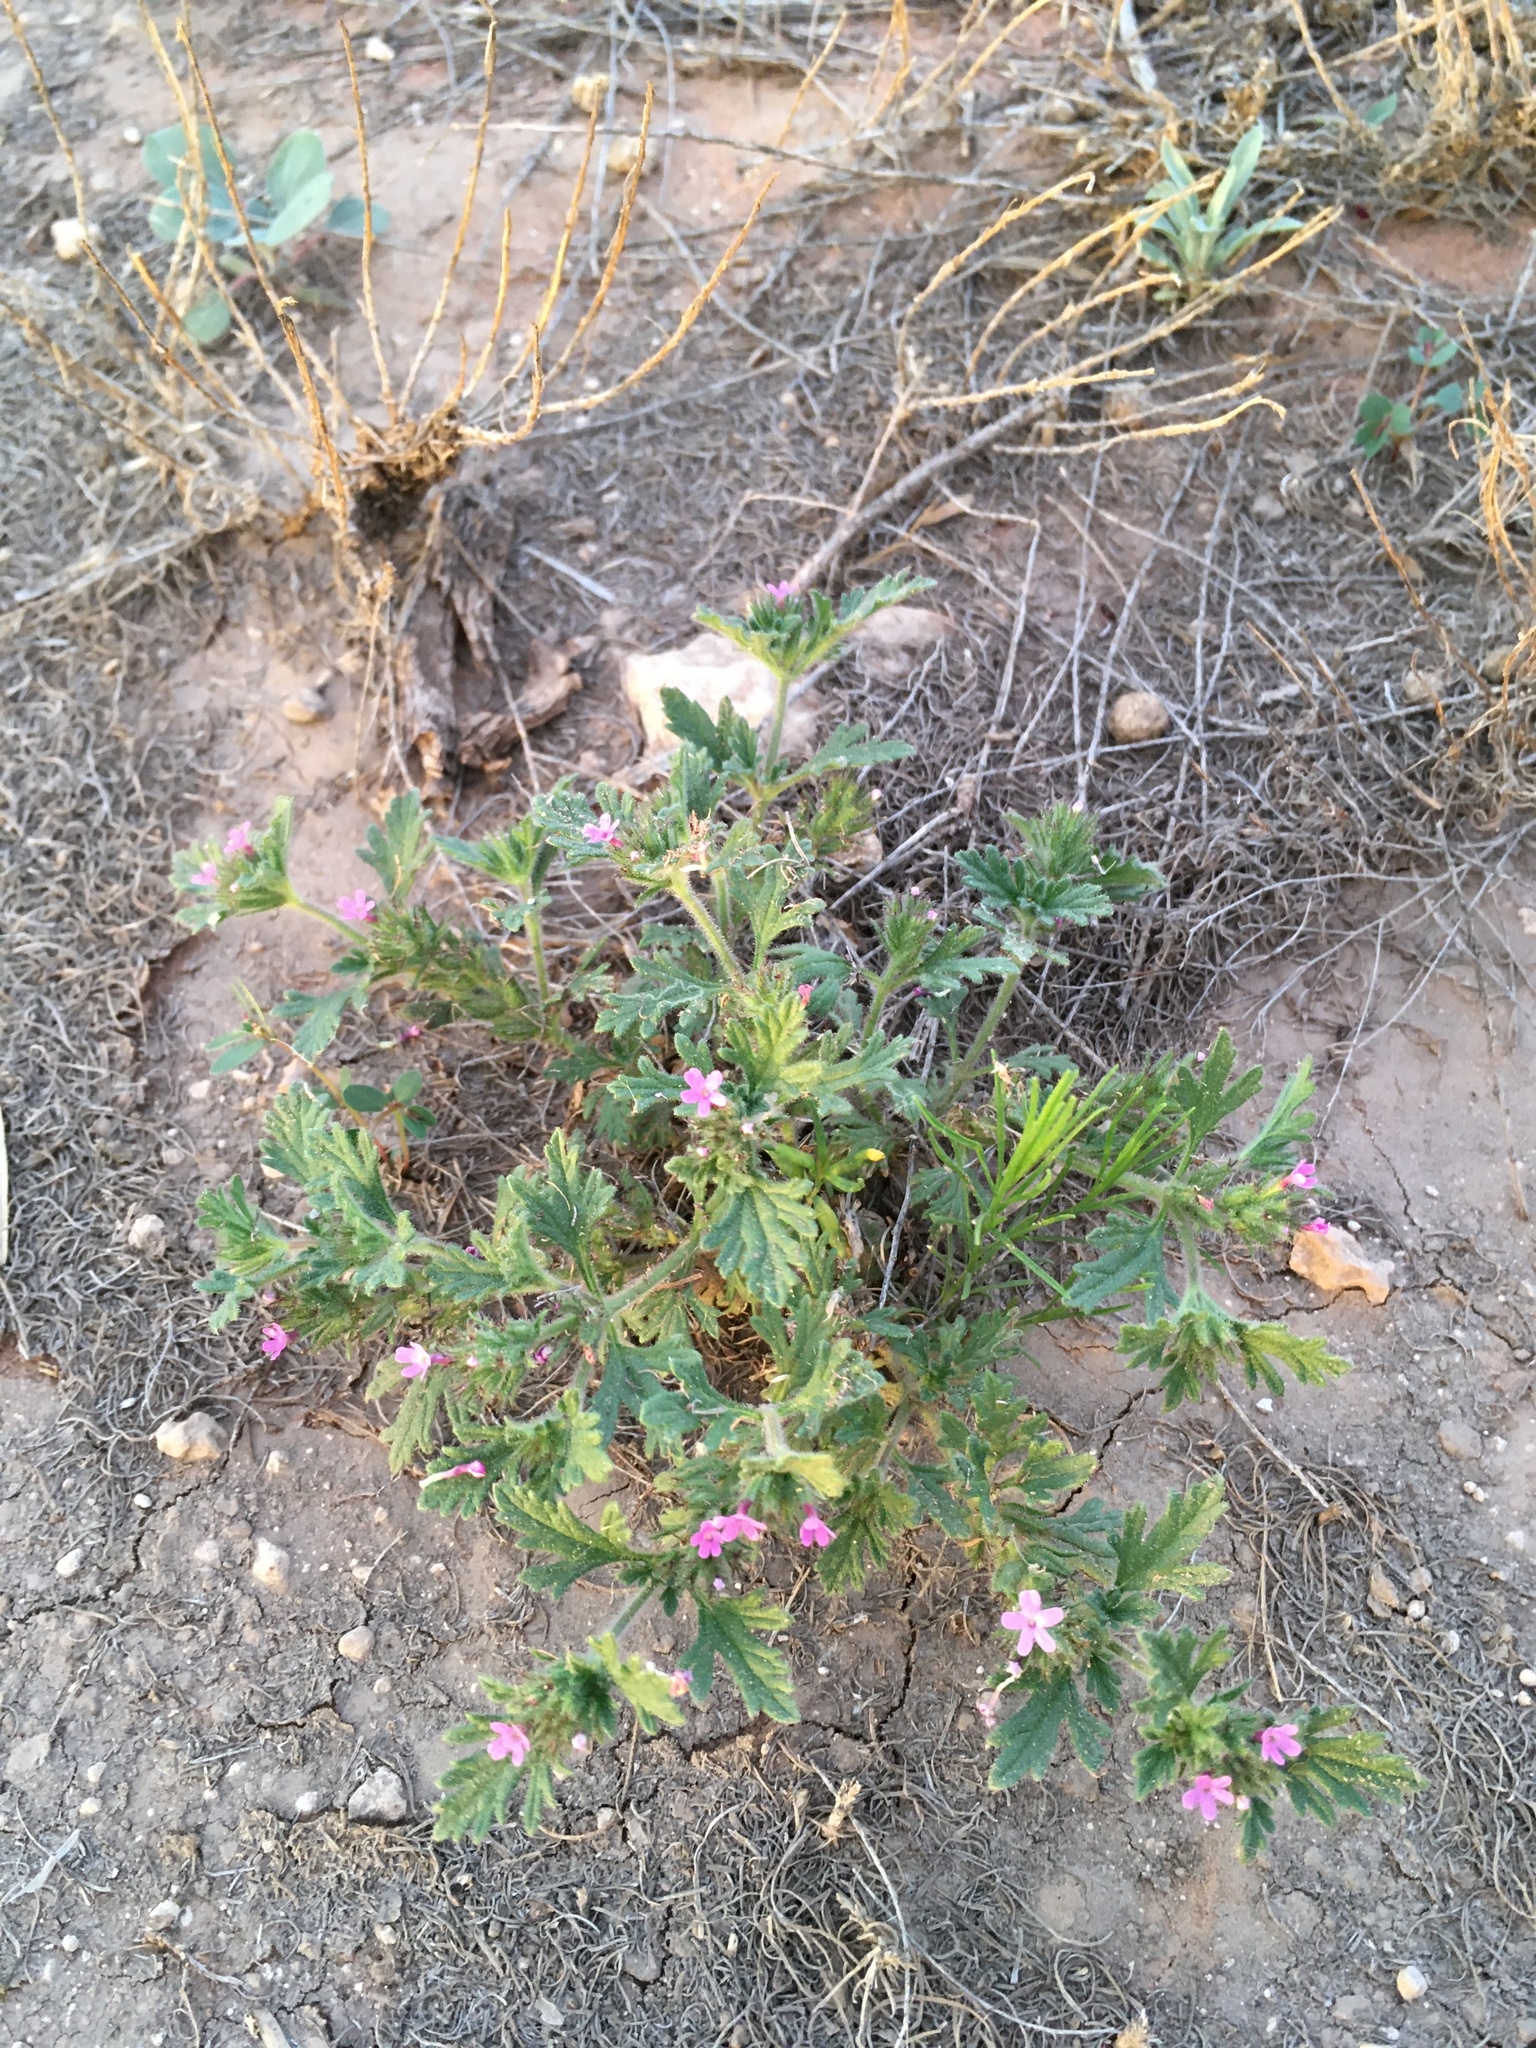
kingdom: Plantae
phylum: Tracheophyta
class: Magnoliopsida
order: Lamiales
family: Verbenaceae
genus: Verbena
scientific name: Verbena pumila
